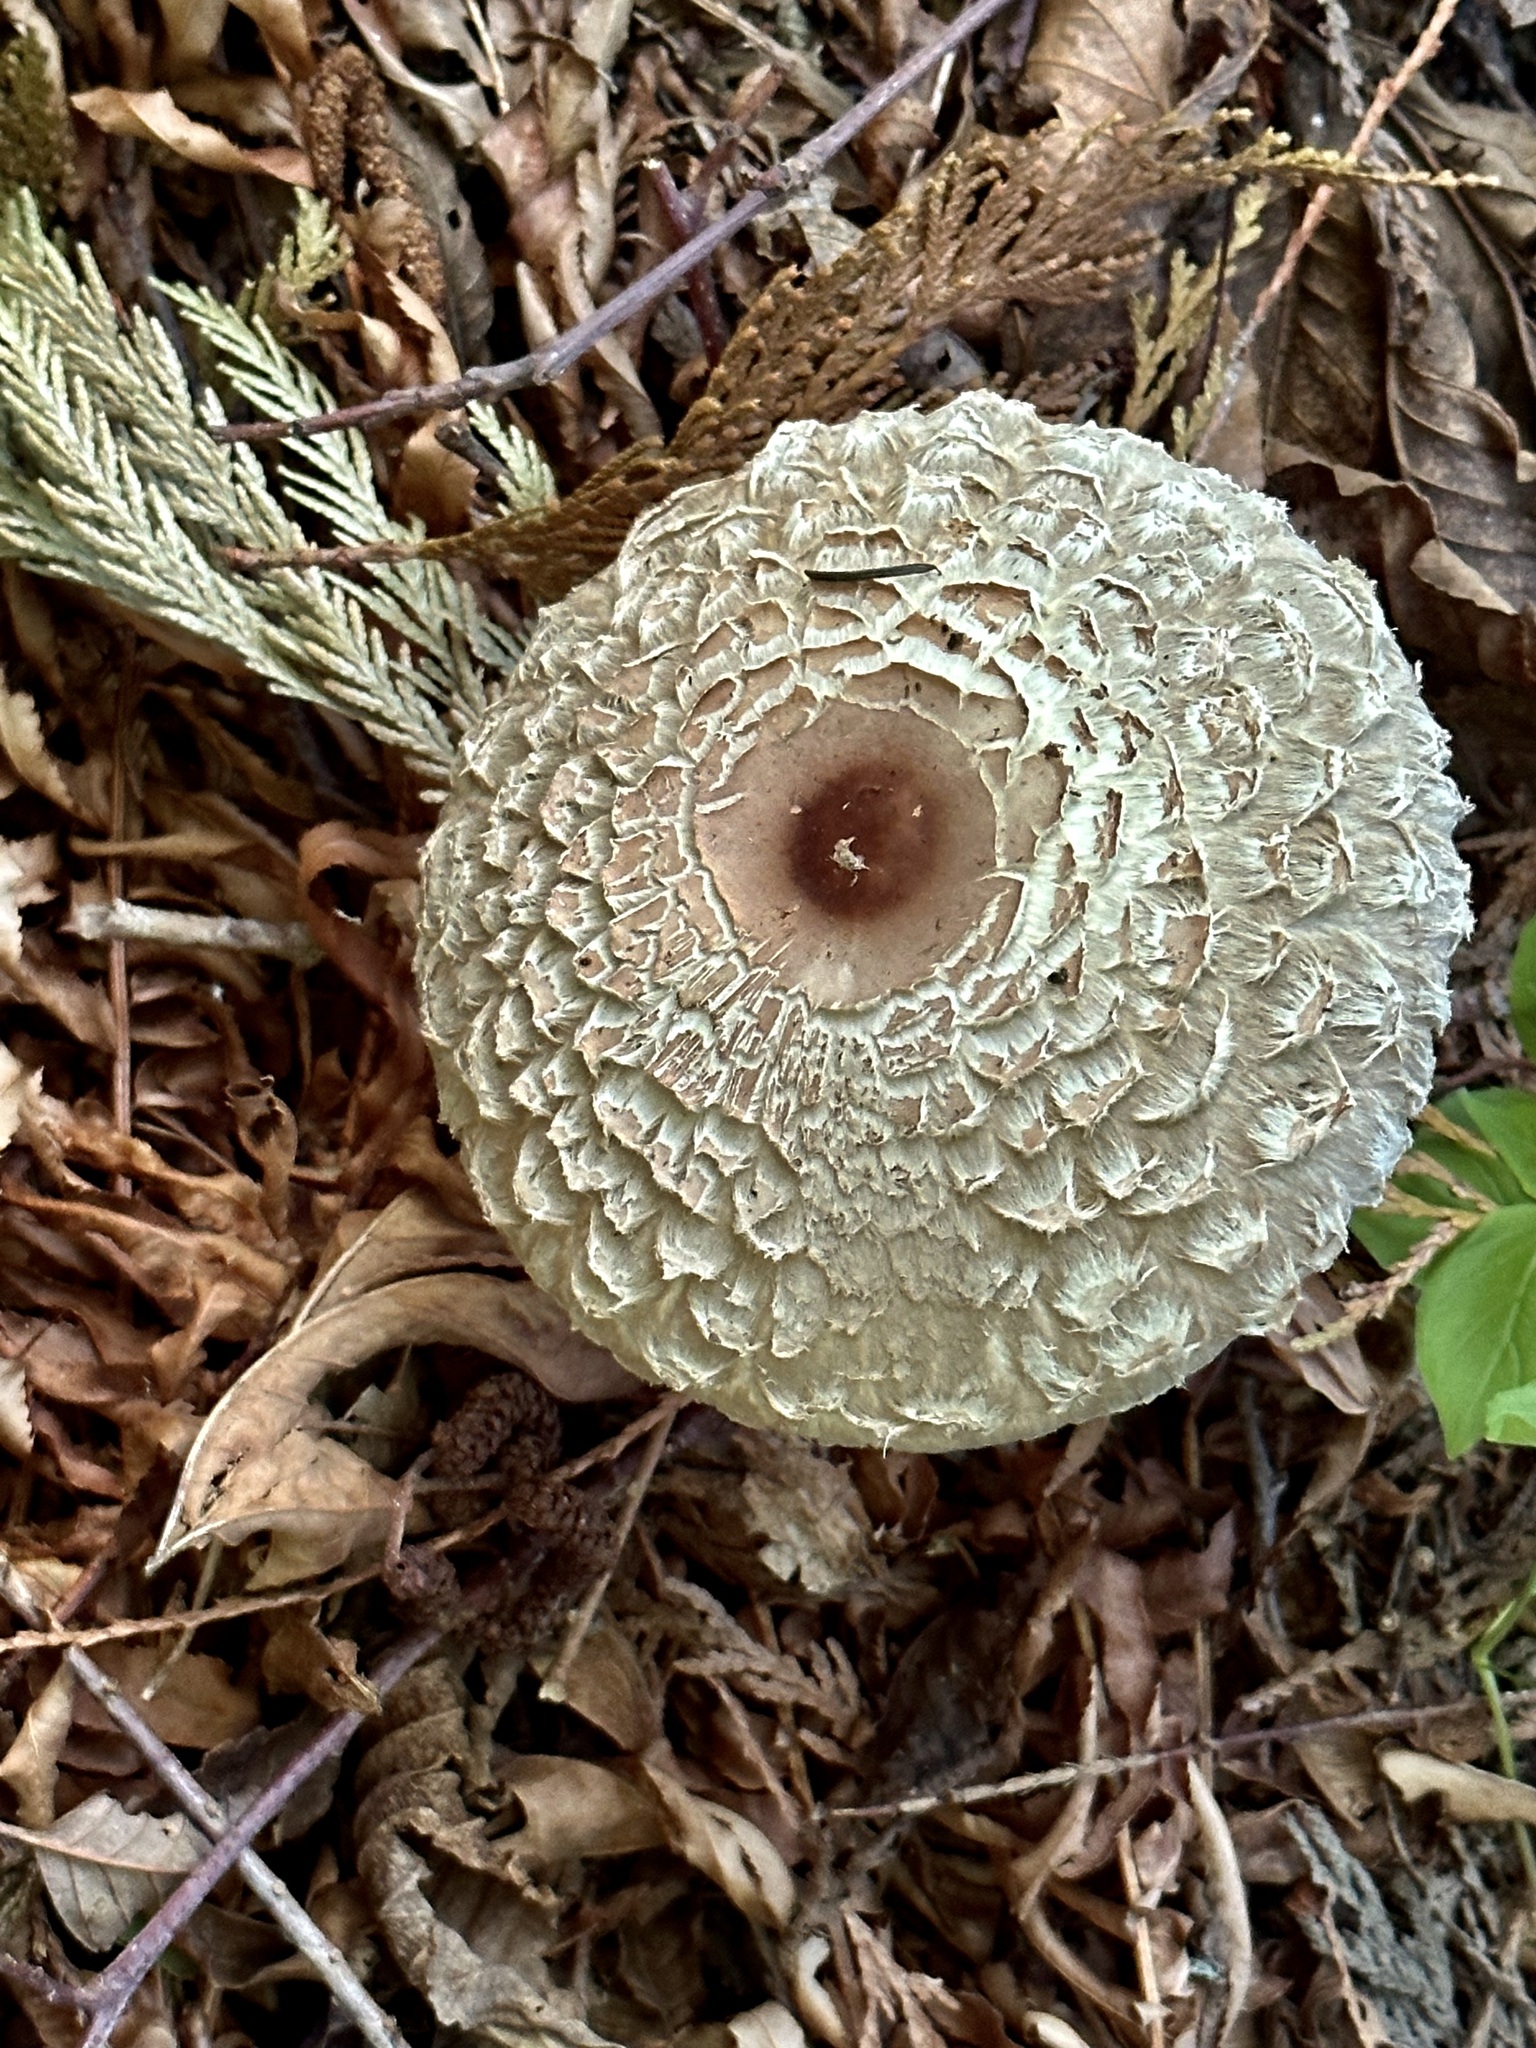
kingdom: Fungi
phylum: Basidiomycota
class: Agaricomycetes
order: Agaricales
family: Agaricaceae
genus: Chlorophyllum
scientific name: Chlorophyllum olivieri
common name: Conifer parasol
